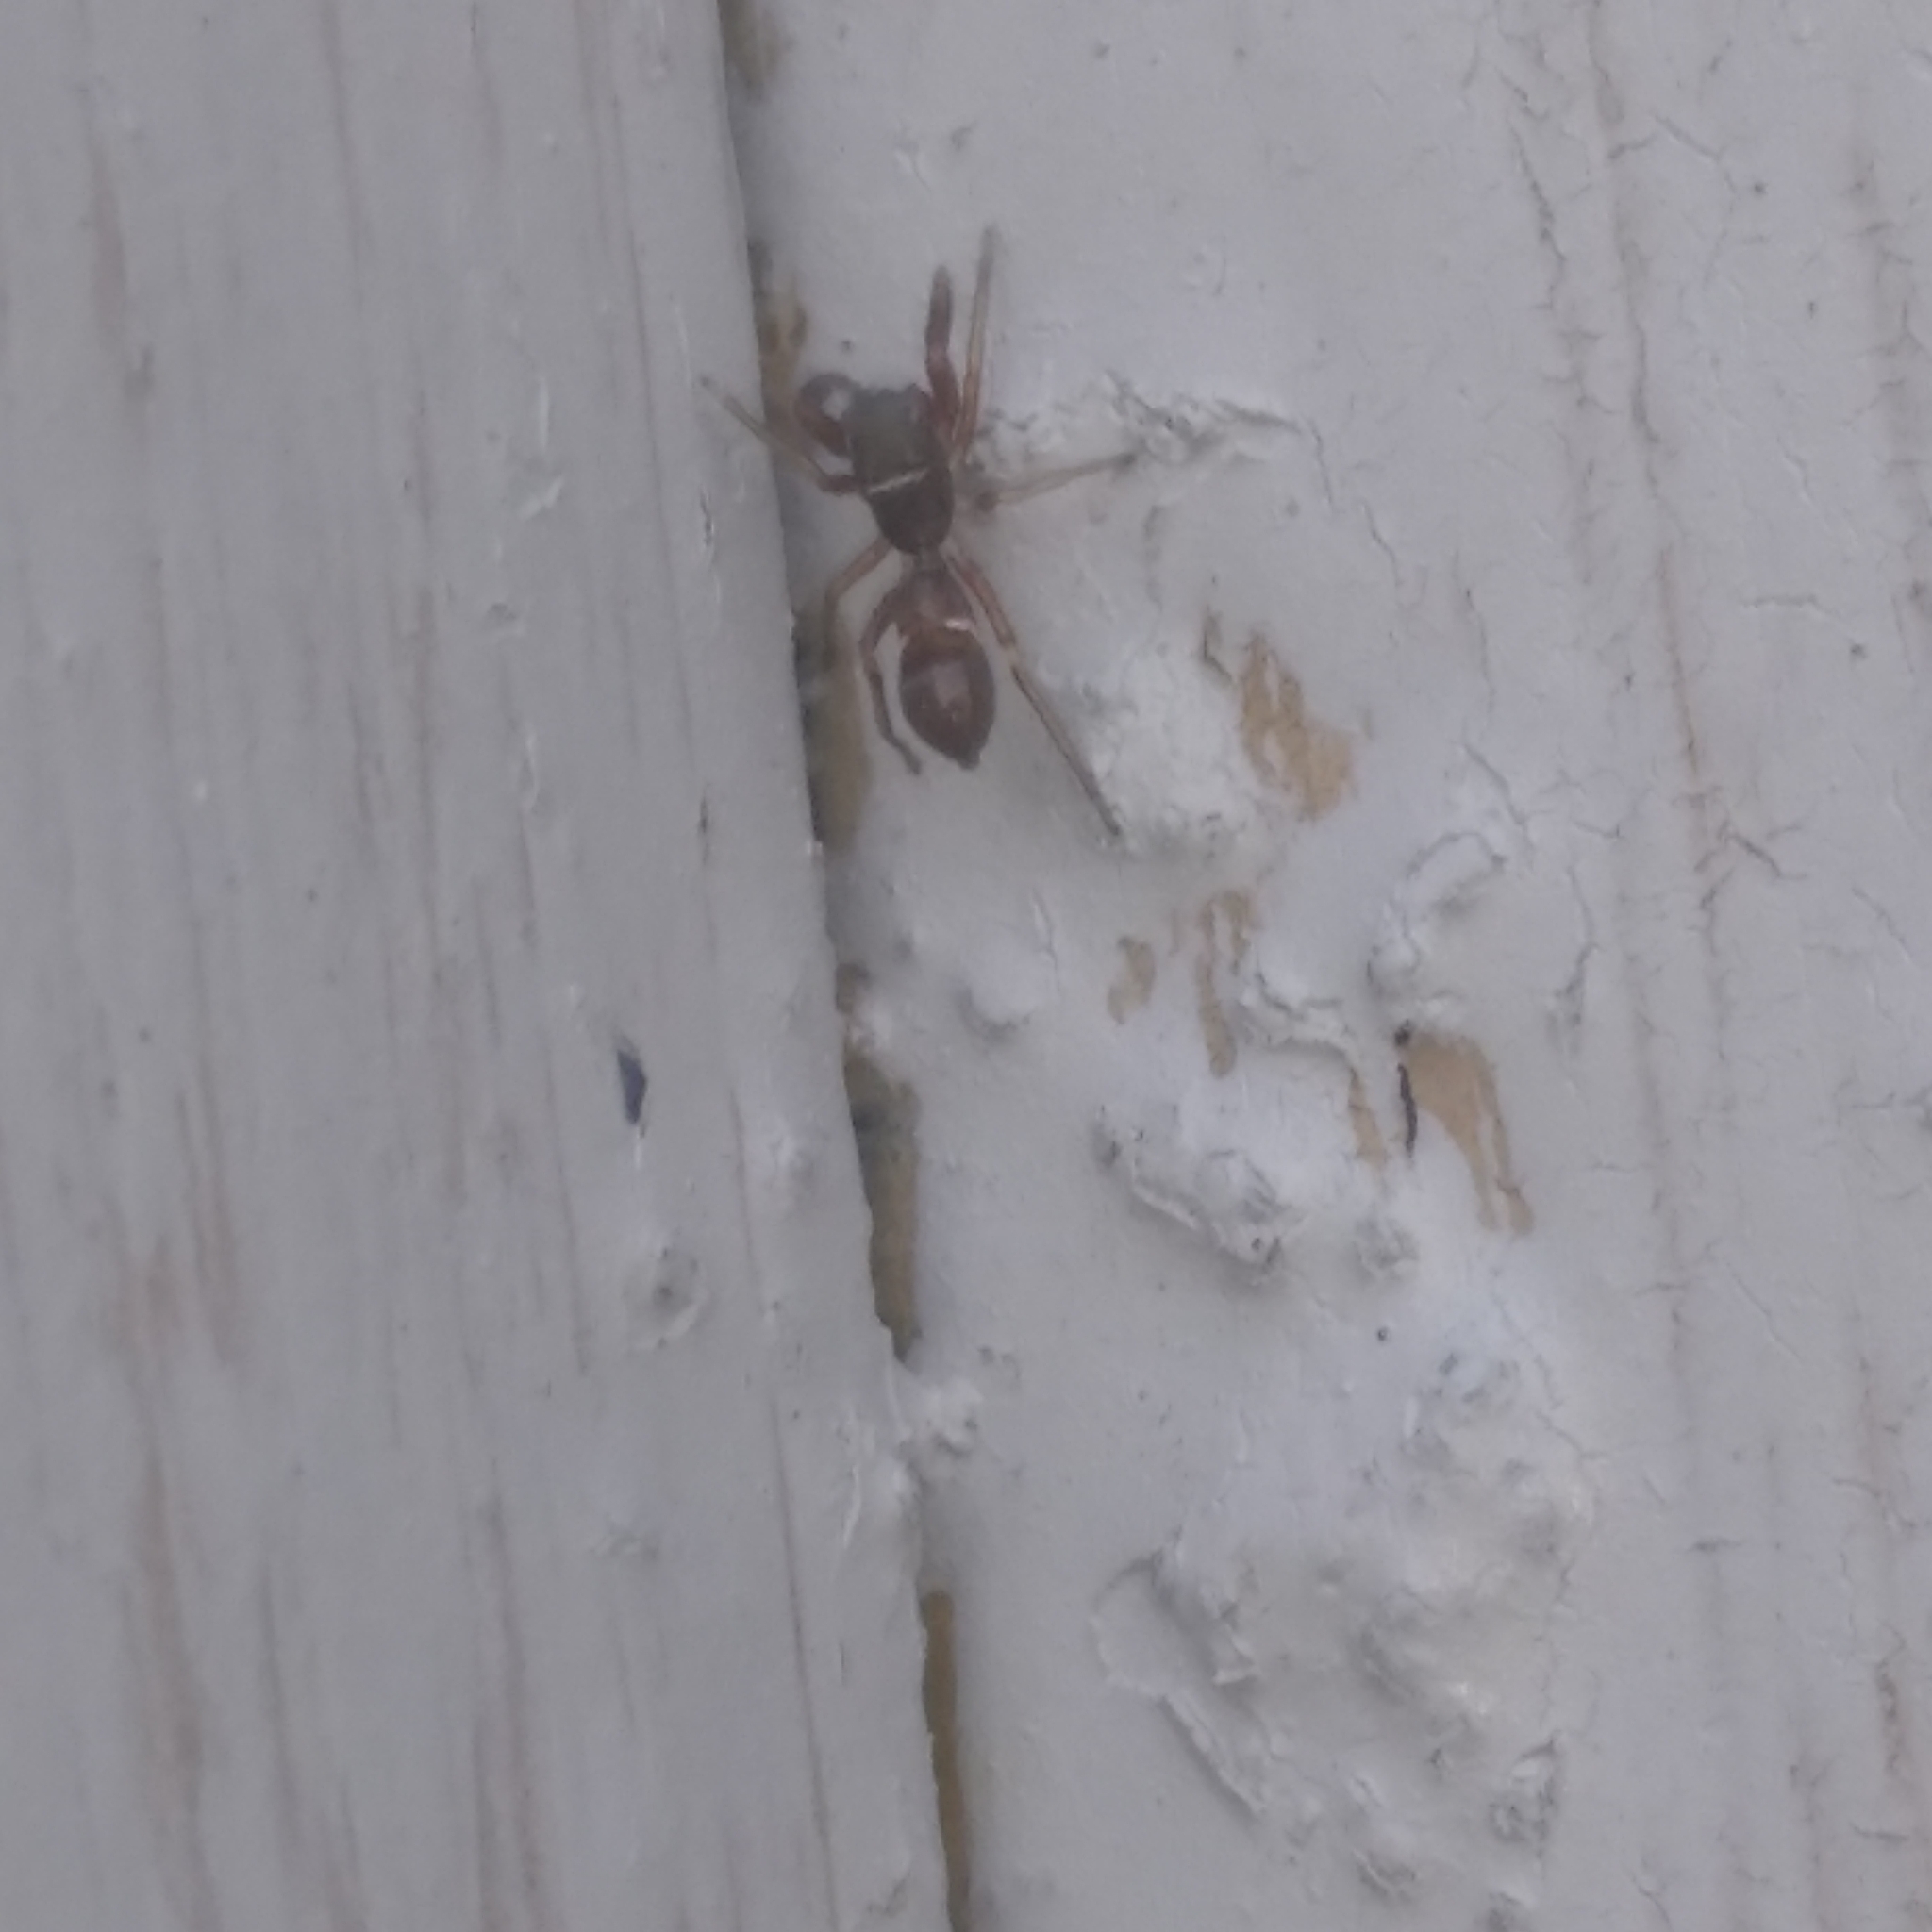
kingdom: Animalia
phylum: Arthropoda
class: Arachnida
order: Araneae
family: Salticidae
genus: Synageles
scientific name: Synageles venator
